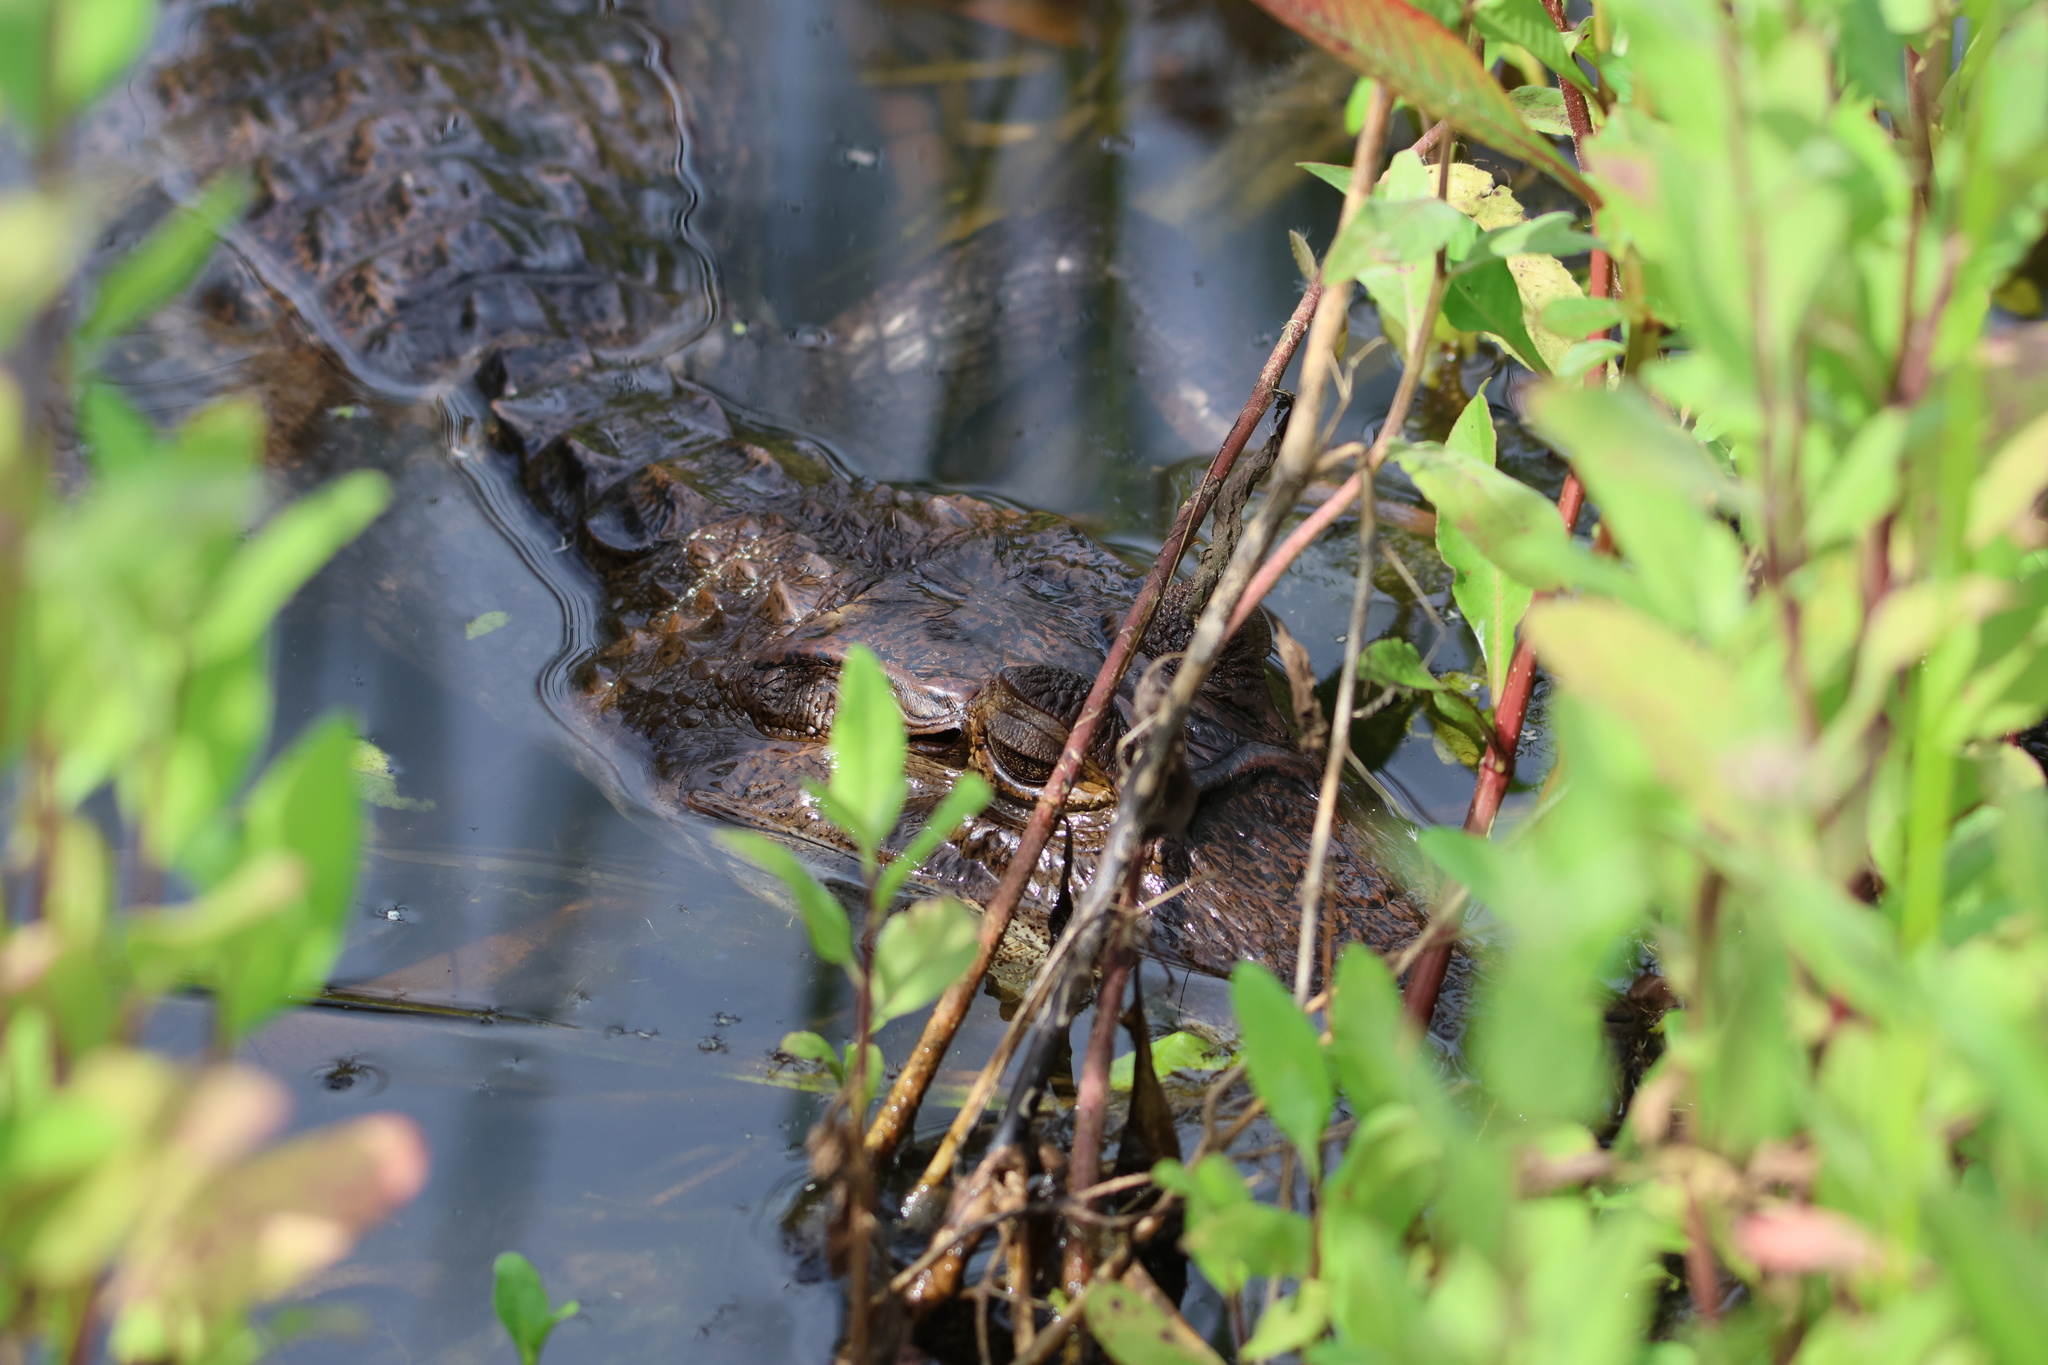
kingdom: Animalia
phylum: Chordata
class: Crocodylia
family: Alligatoridae
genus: Caiman
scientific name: Caiman crocodilus
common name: Common caiman
